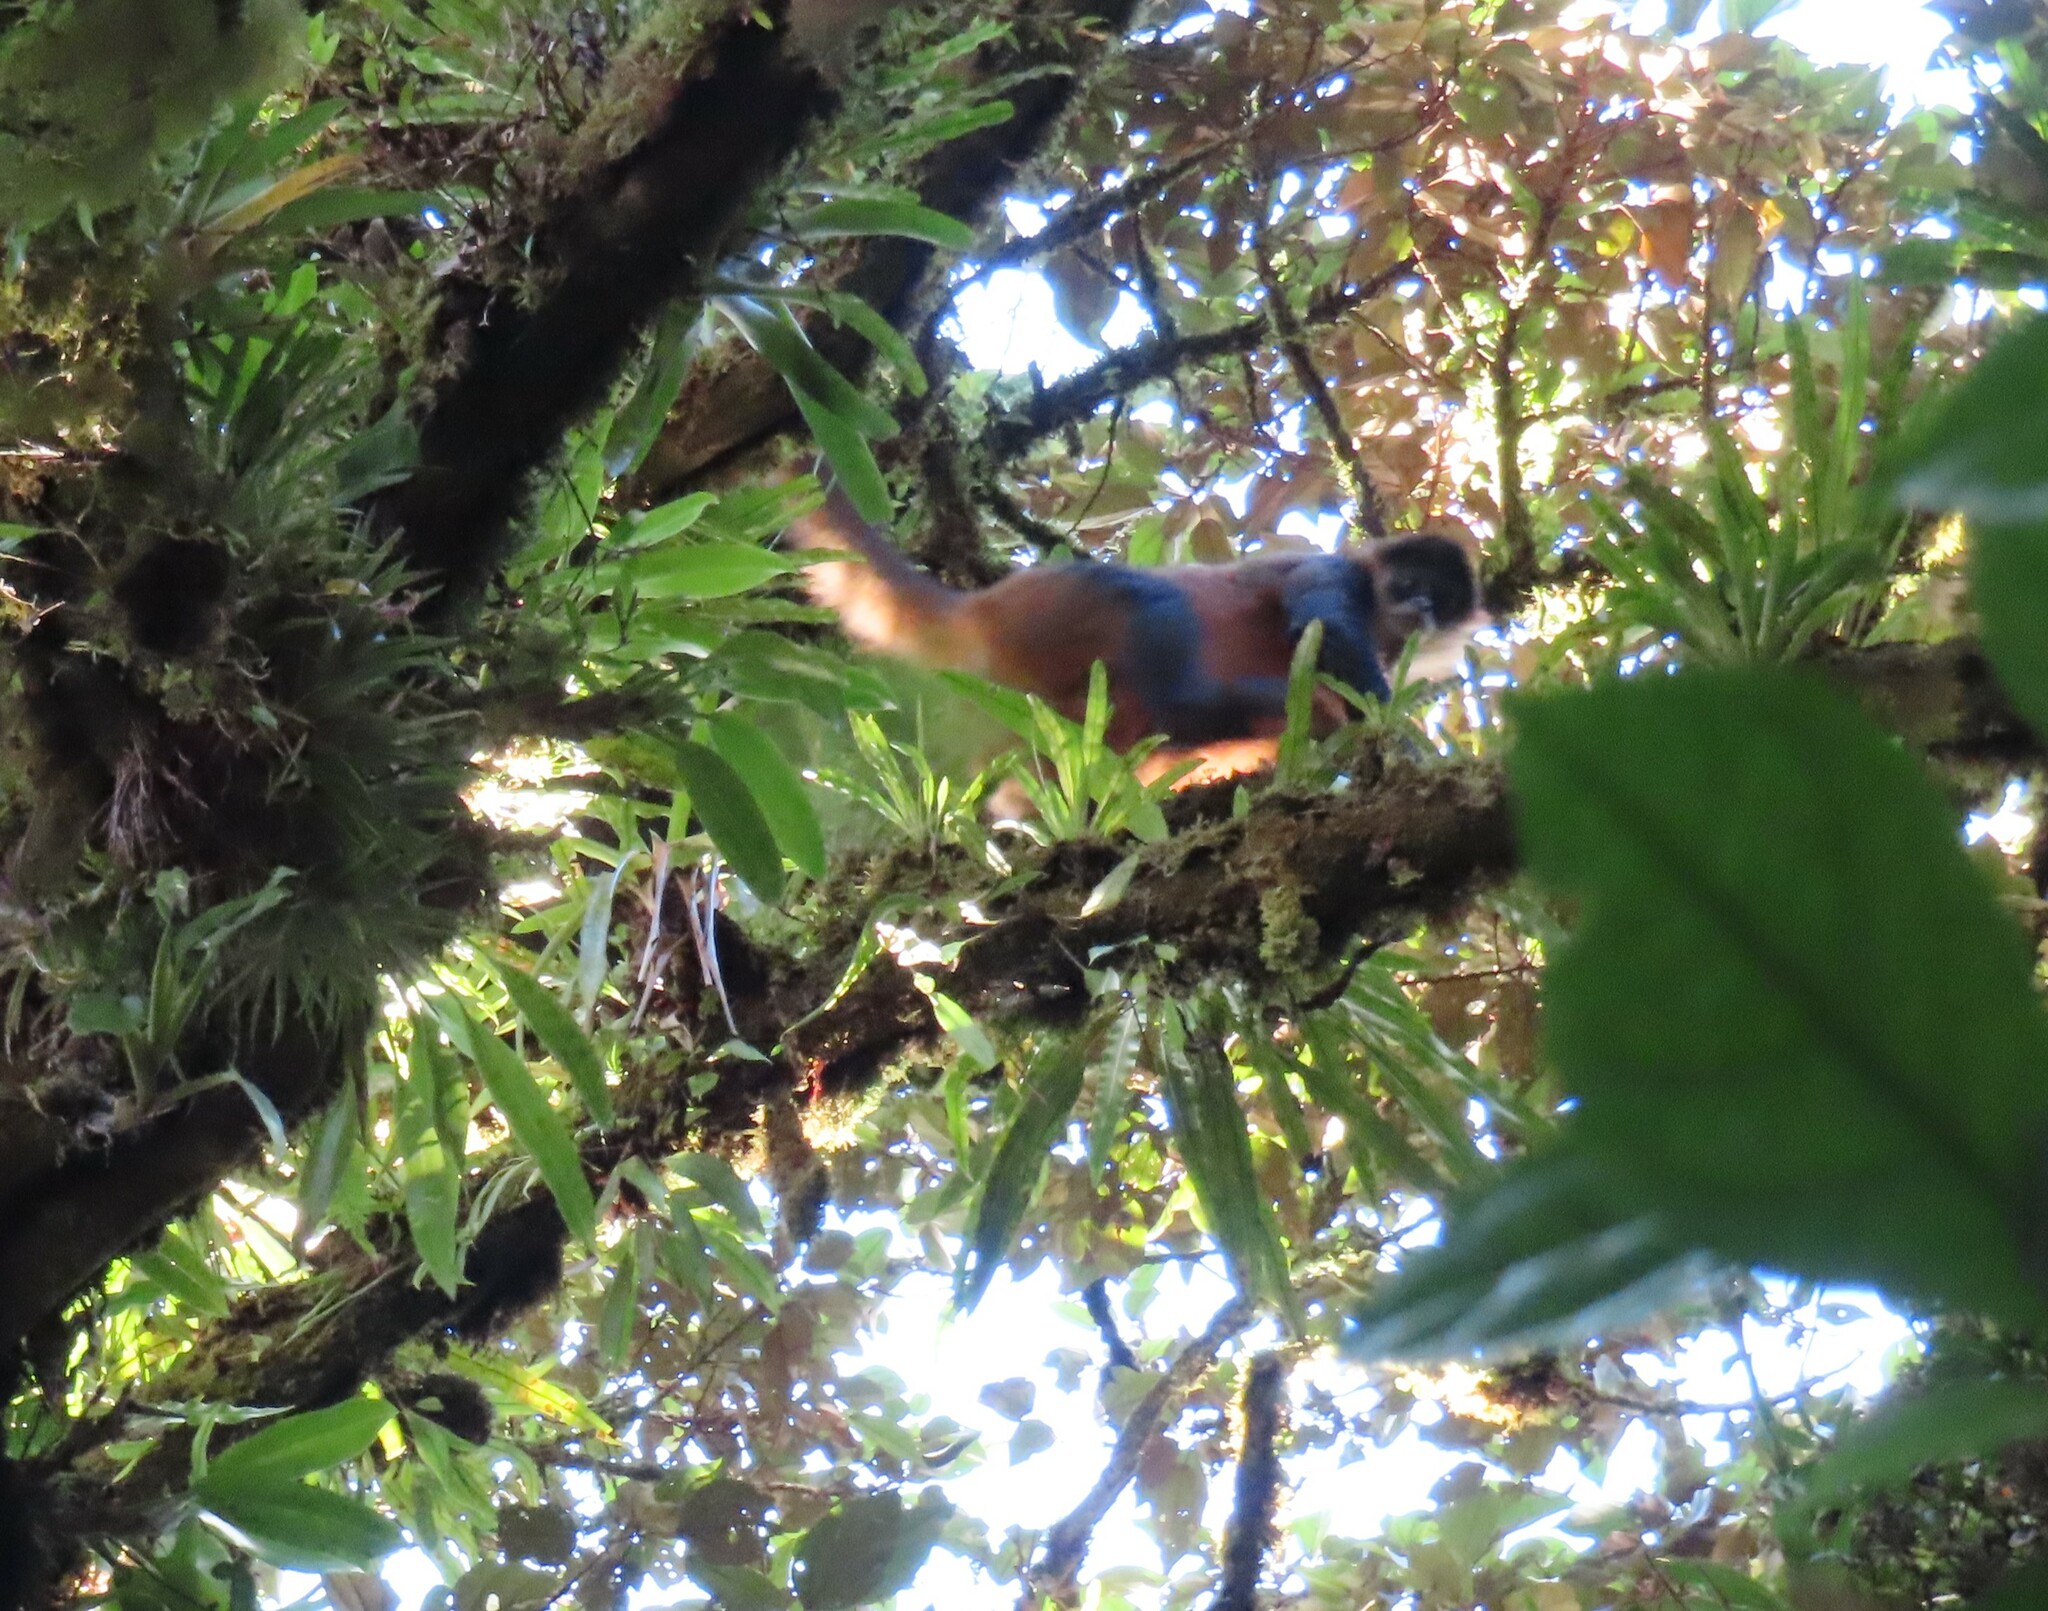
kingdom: Animalia
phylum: Chordata
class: Mammalia
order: Primates
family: Atelidae
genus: Ateles
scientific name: Ateles geoffroyi
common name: Black-handed spider monkey
